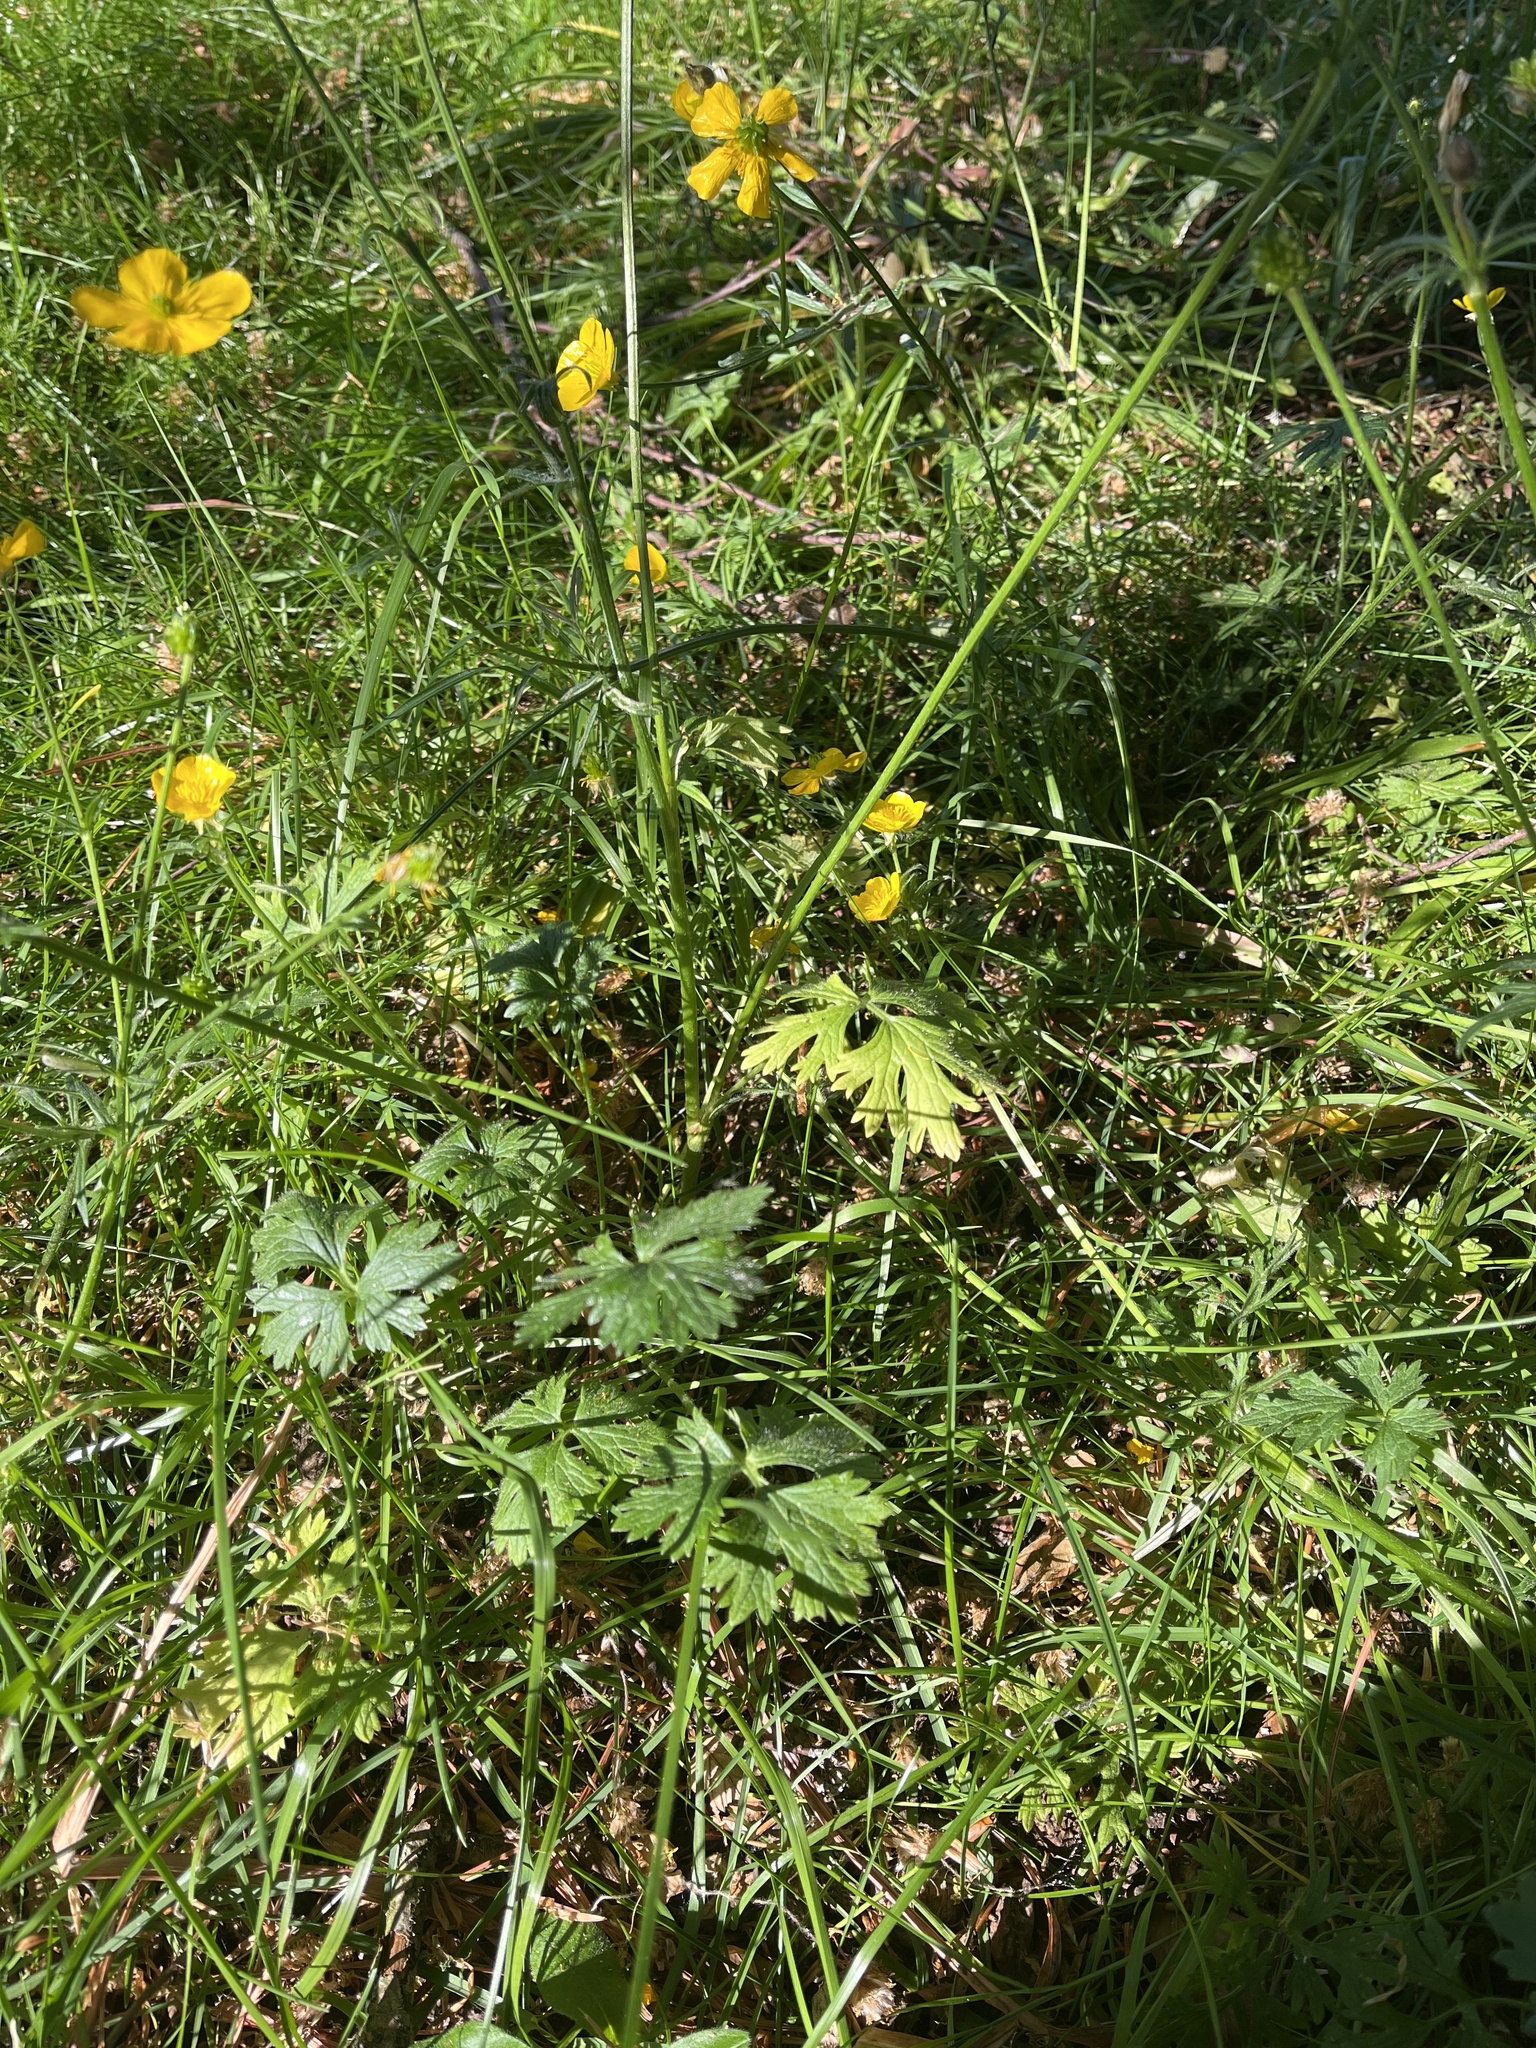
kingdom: Plantae
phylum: Tracheophyta
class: Magnoliopsida
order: Ranunculales
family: Ranunculaceae
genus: Ranunculus
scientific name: Ranunculus bulbosus
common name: Bulbous buttercup
